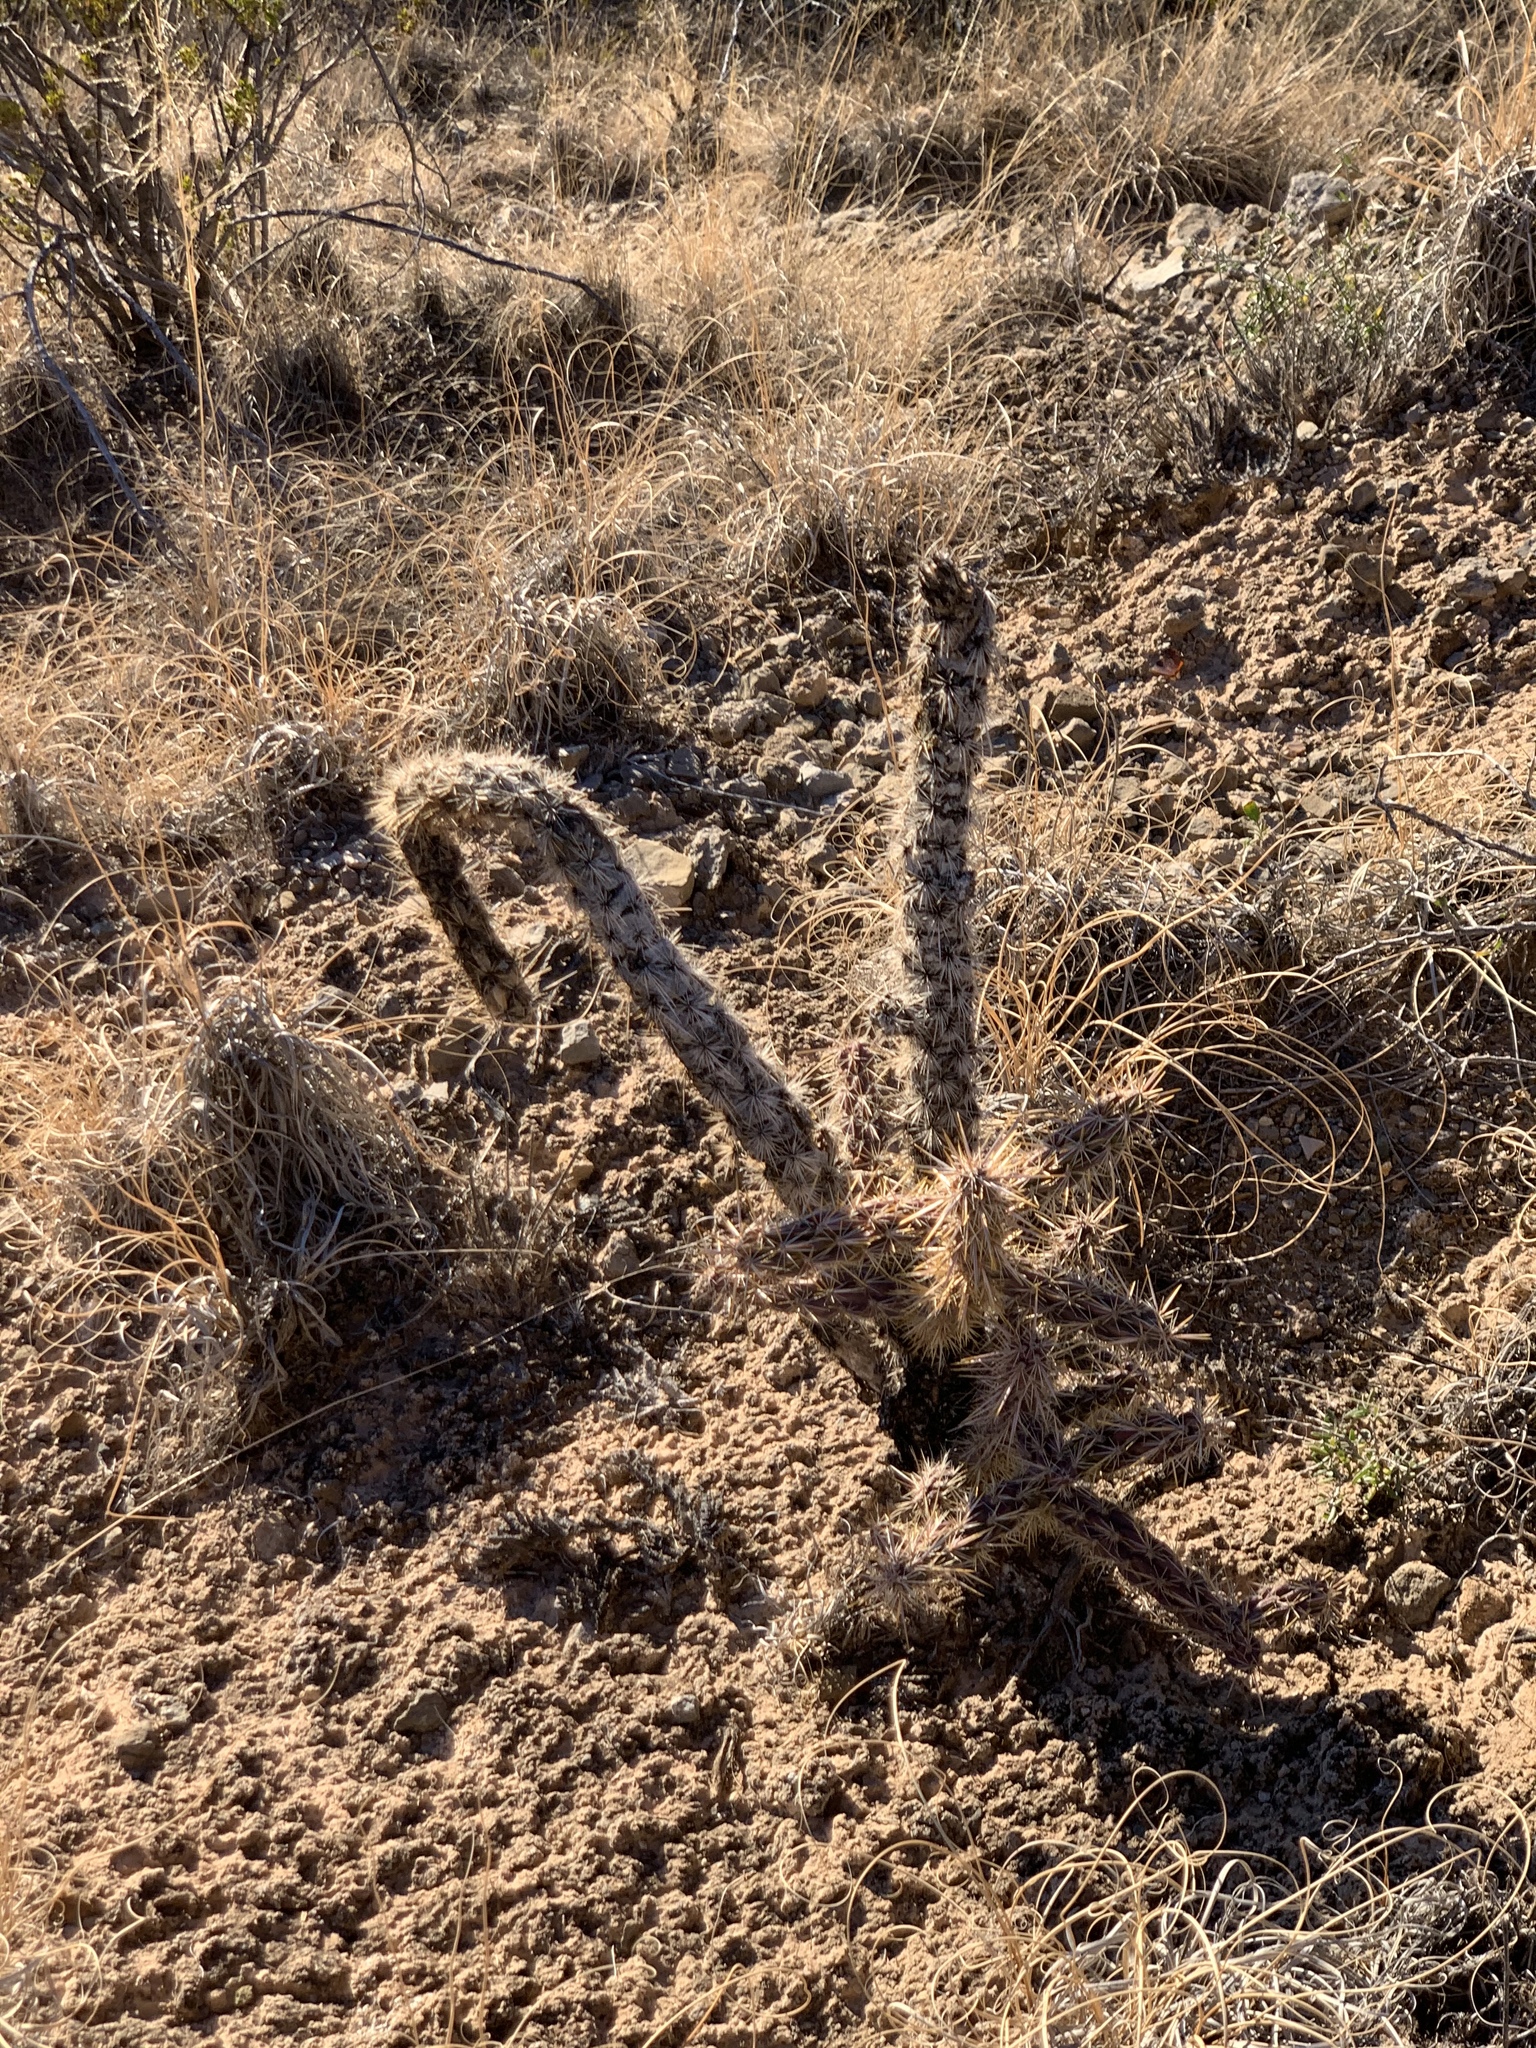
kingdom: Plantae
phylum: Tracheophyta
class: Magnoliopsida
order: Caryophyllales
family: Cactaceae
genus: Cylindropuntia
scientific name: Cylindropuntia imbricata
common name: Candelabrum cactus
